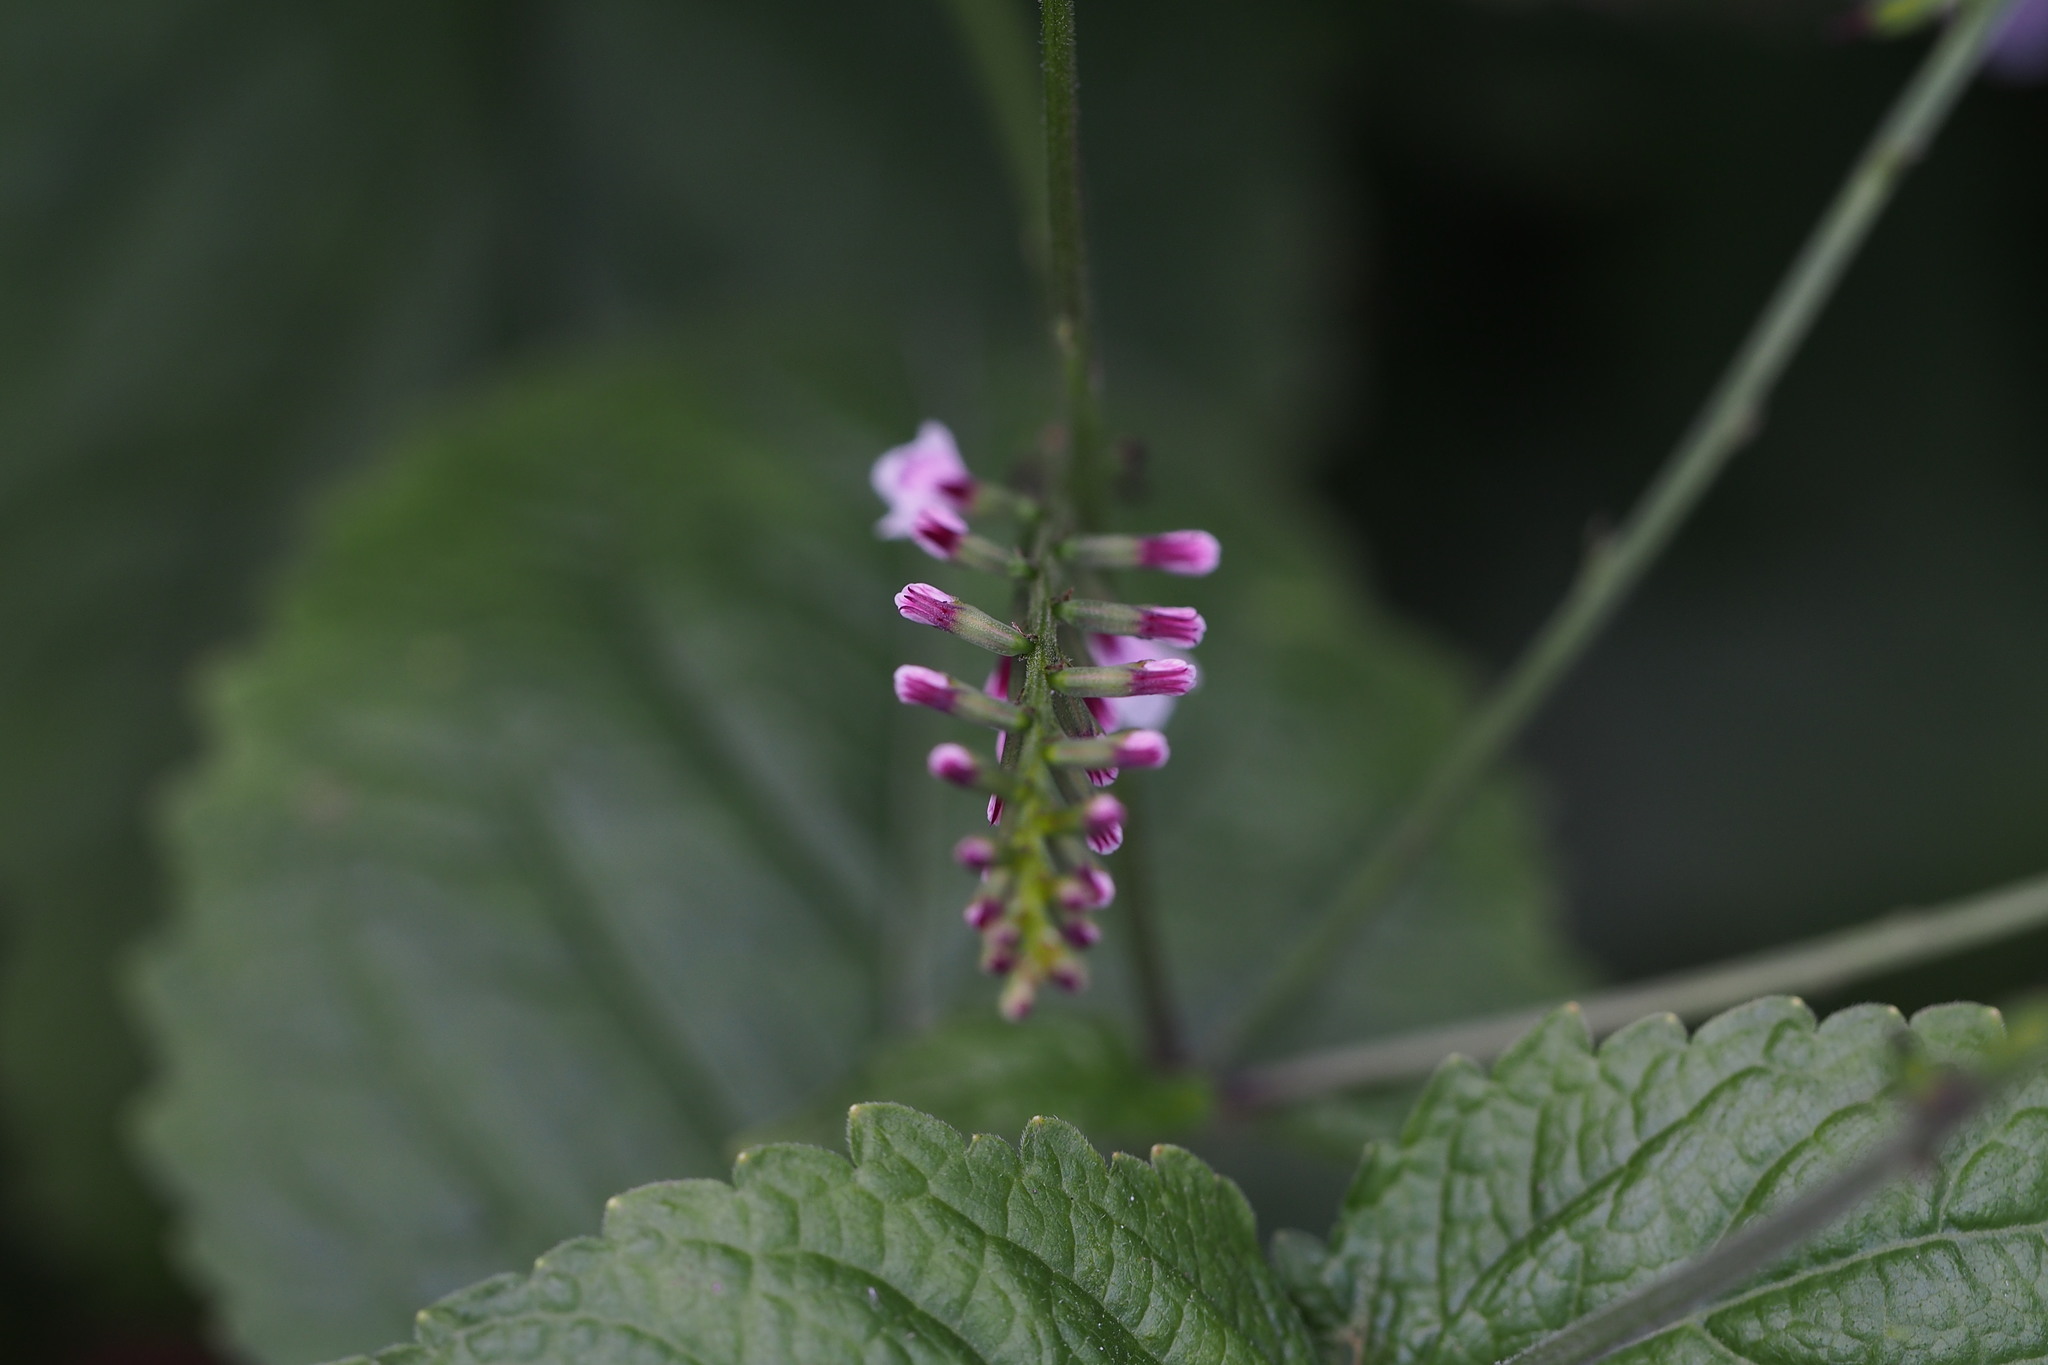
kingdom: Plantae
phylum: Tracheophyta
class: Magnoliopsida
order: Lamiales
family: Phrymaceae
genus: Phryma
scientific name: Phryma nana
